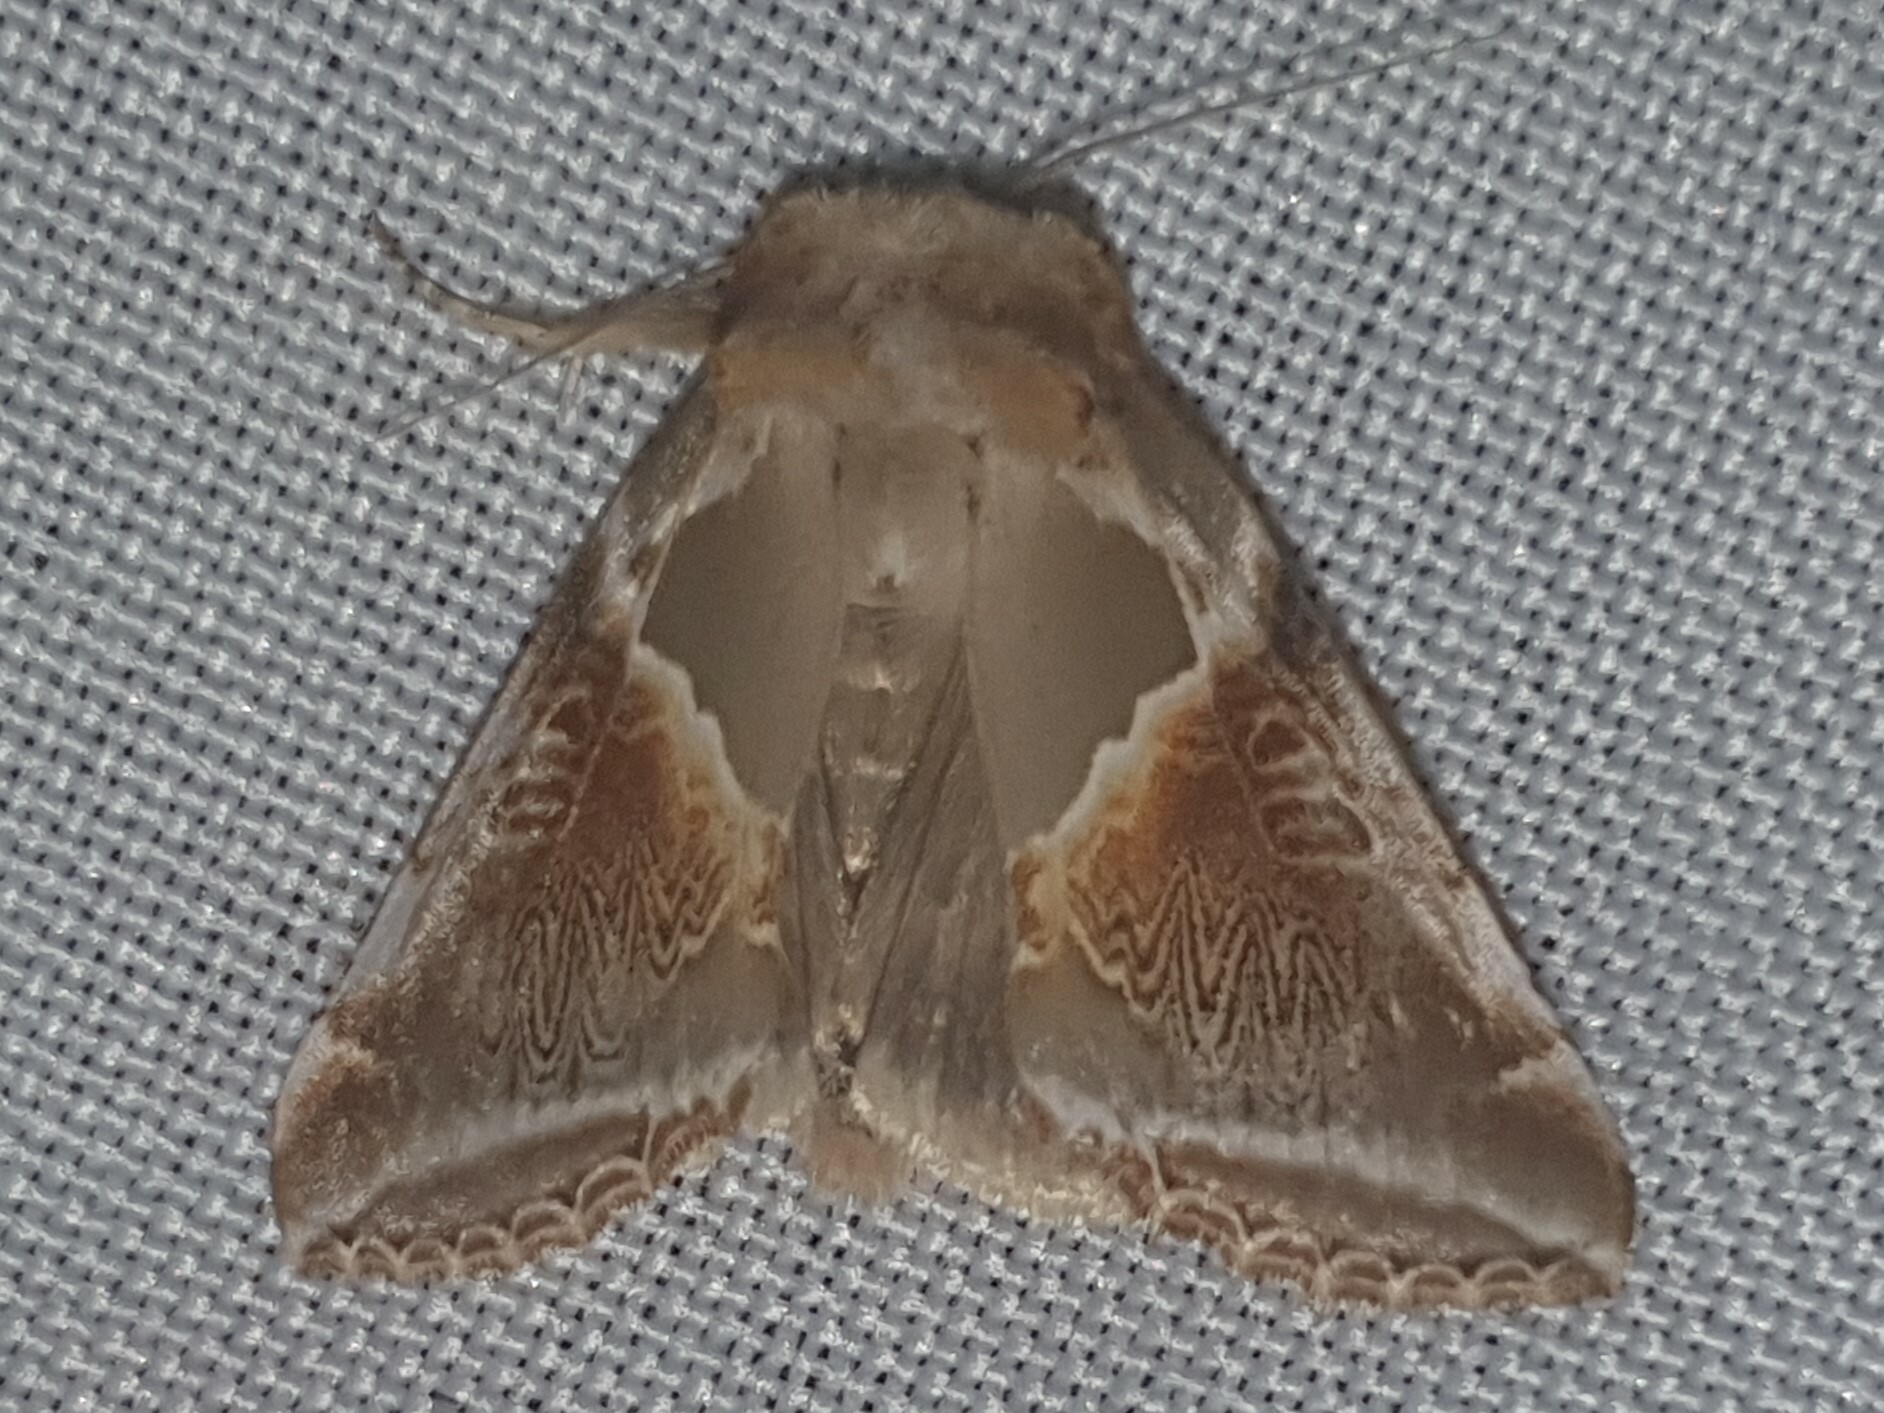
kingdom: Animalia
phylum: Arthropoda
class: Insecta
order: Lepidoptera
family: Drepanidae
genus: Habrosyne
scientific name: Habrosyne pyritoides
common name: Buff arches
